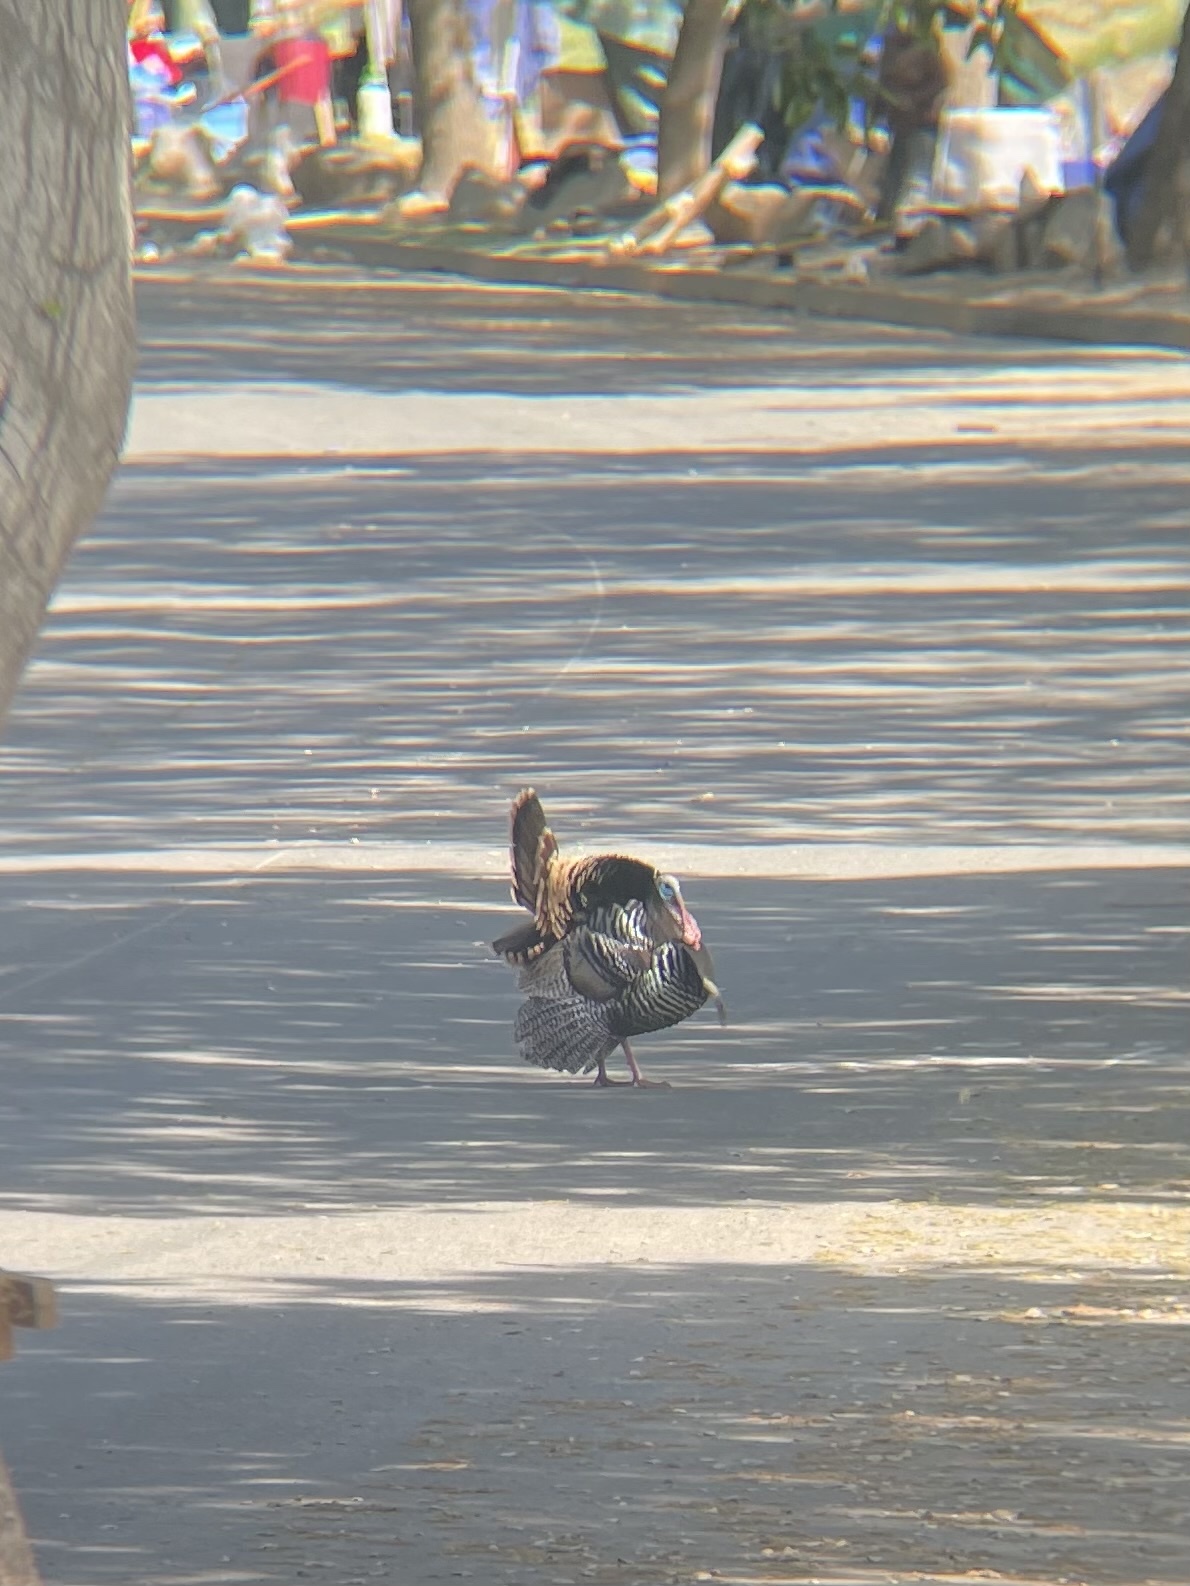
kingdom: Animalia
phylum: Chordata
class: Aves
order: Galliformes
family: Phasianidae
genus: Meleagris
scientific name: Meleagris gallopavo
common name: Wild turkey
